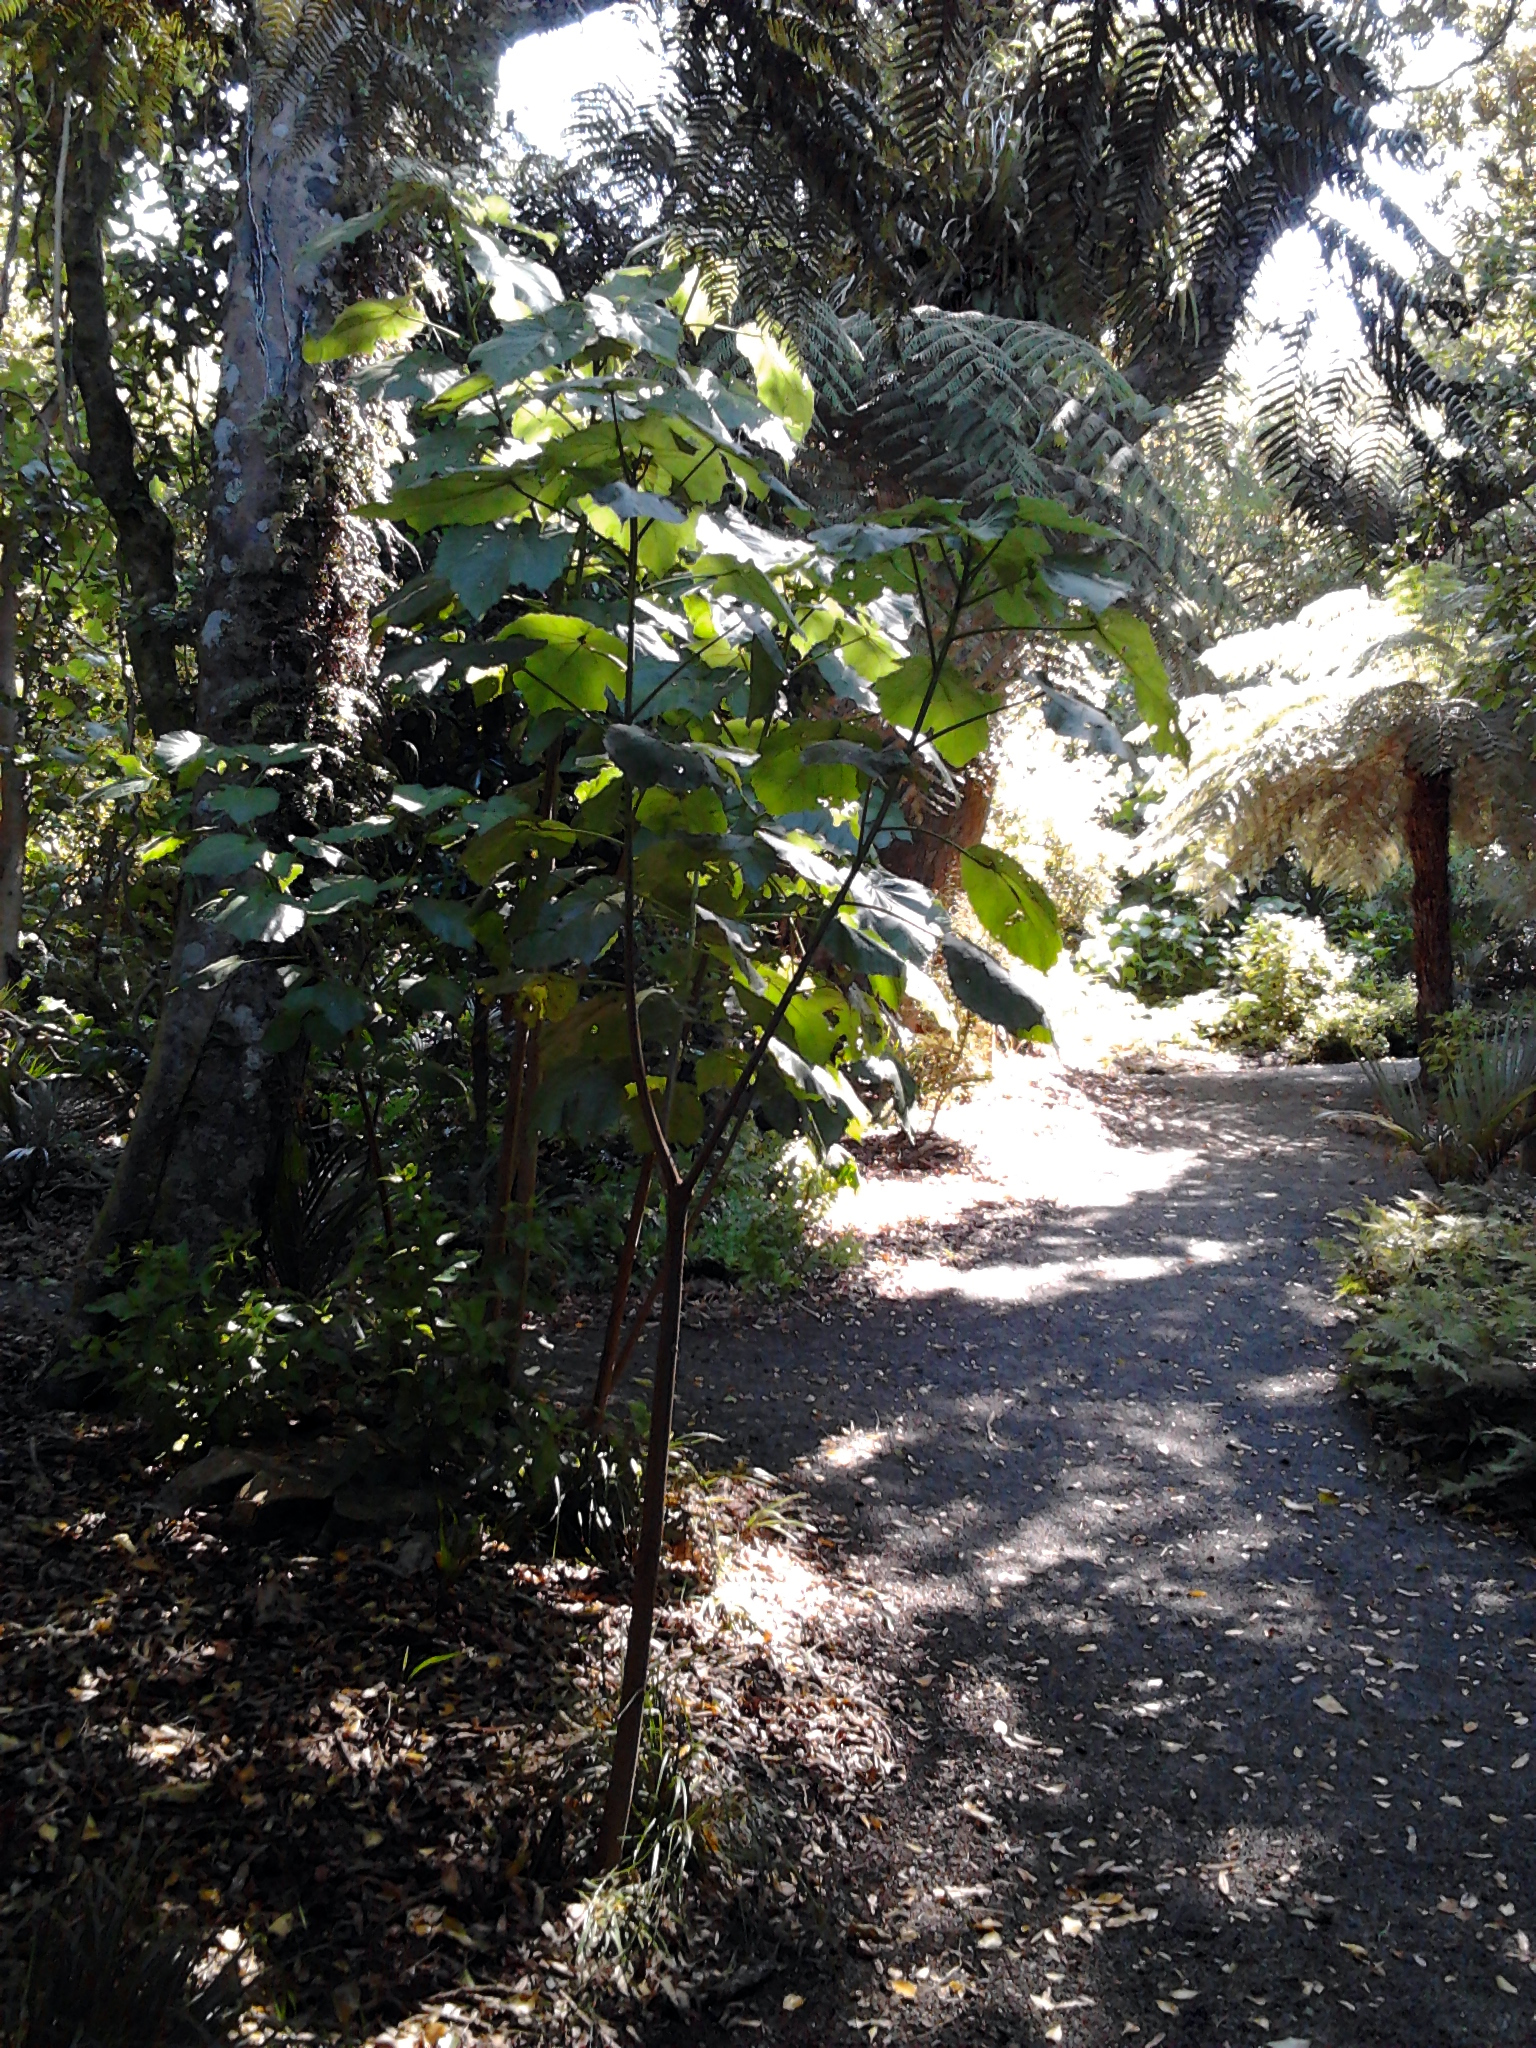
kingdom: Plantae
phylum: Tracheophyta
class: Magnoliopsida
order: Malvales
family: Malvaceae
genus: Entelea
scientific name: Entelea arborescens
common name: New zealand-mulberry
